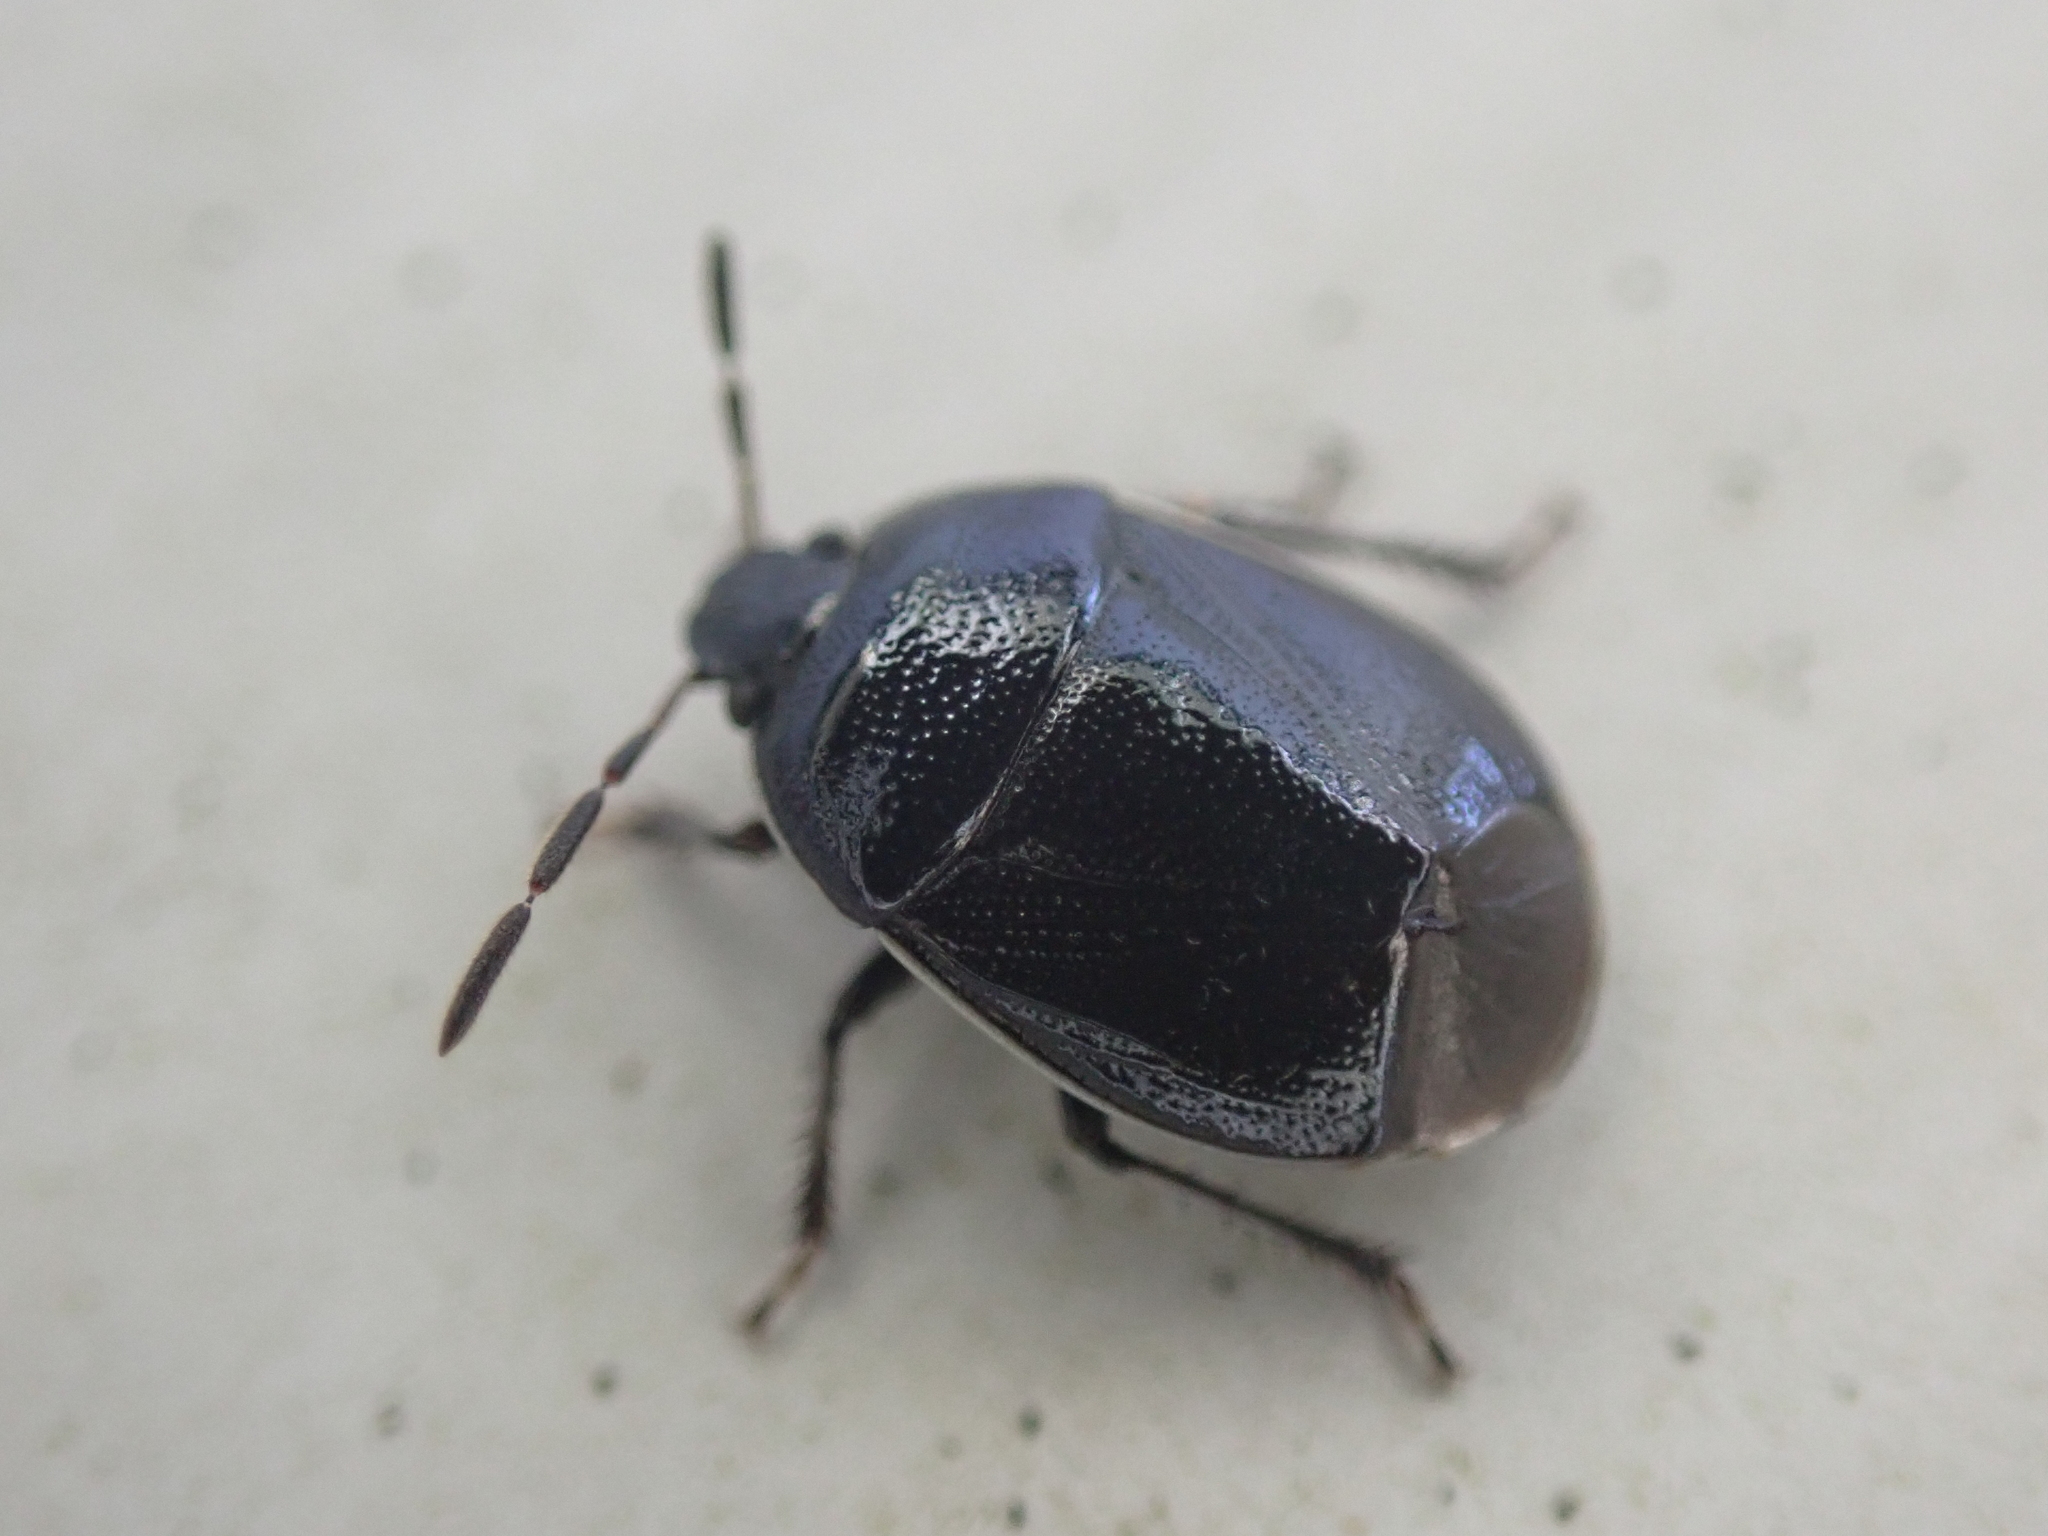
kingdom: Animalia
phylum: Arthropoda
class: Insecta
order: Hemiptera
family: Cydnidae
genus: Sehirus
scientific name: Sehirus cinctus
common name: White-margined burrower bug
